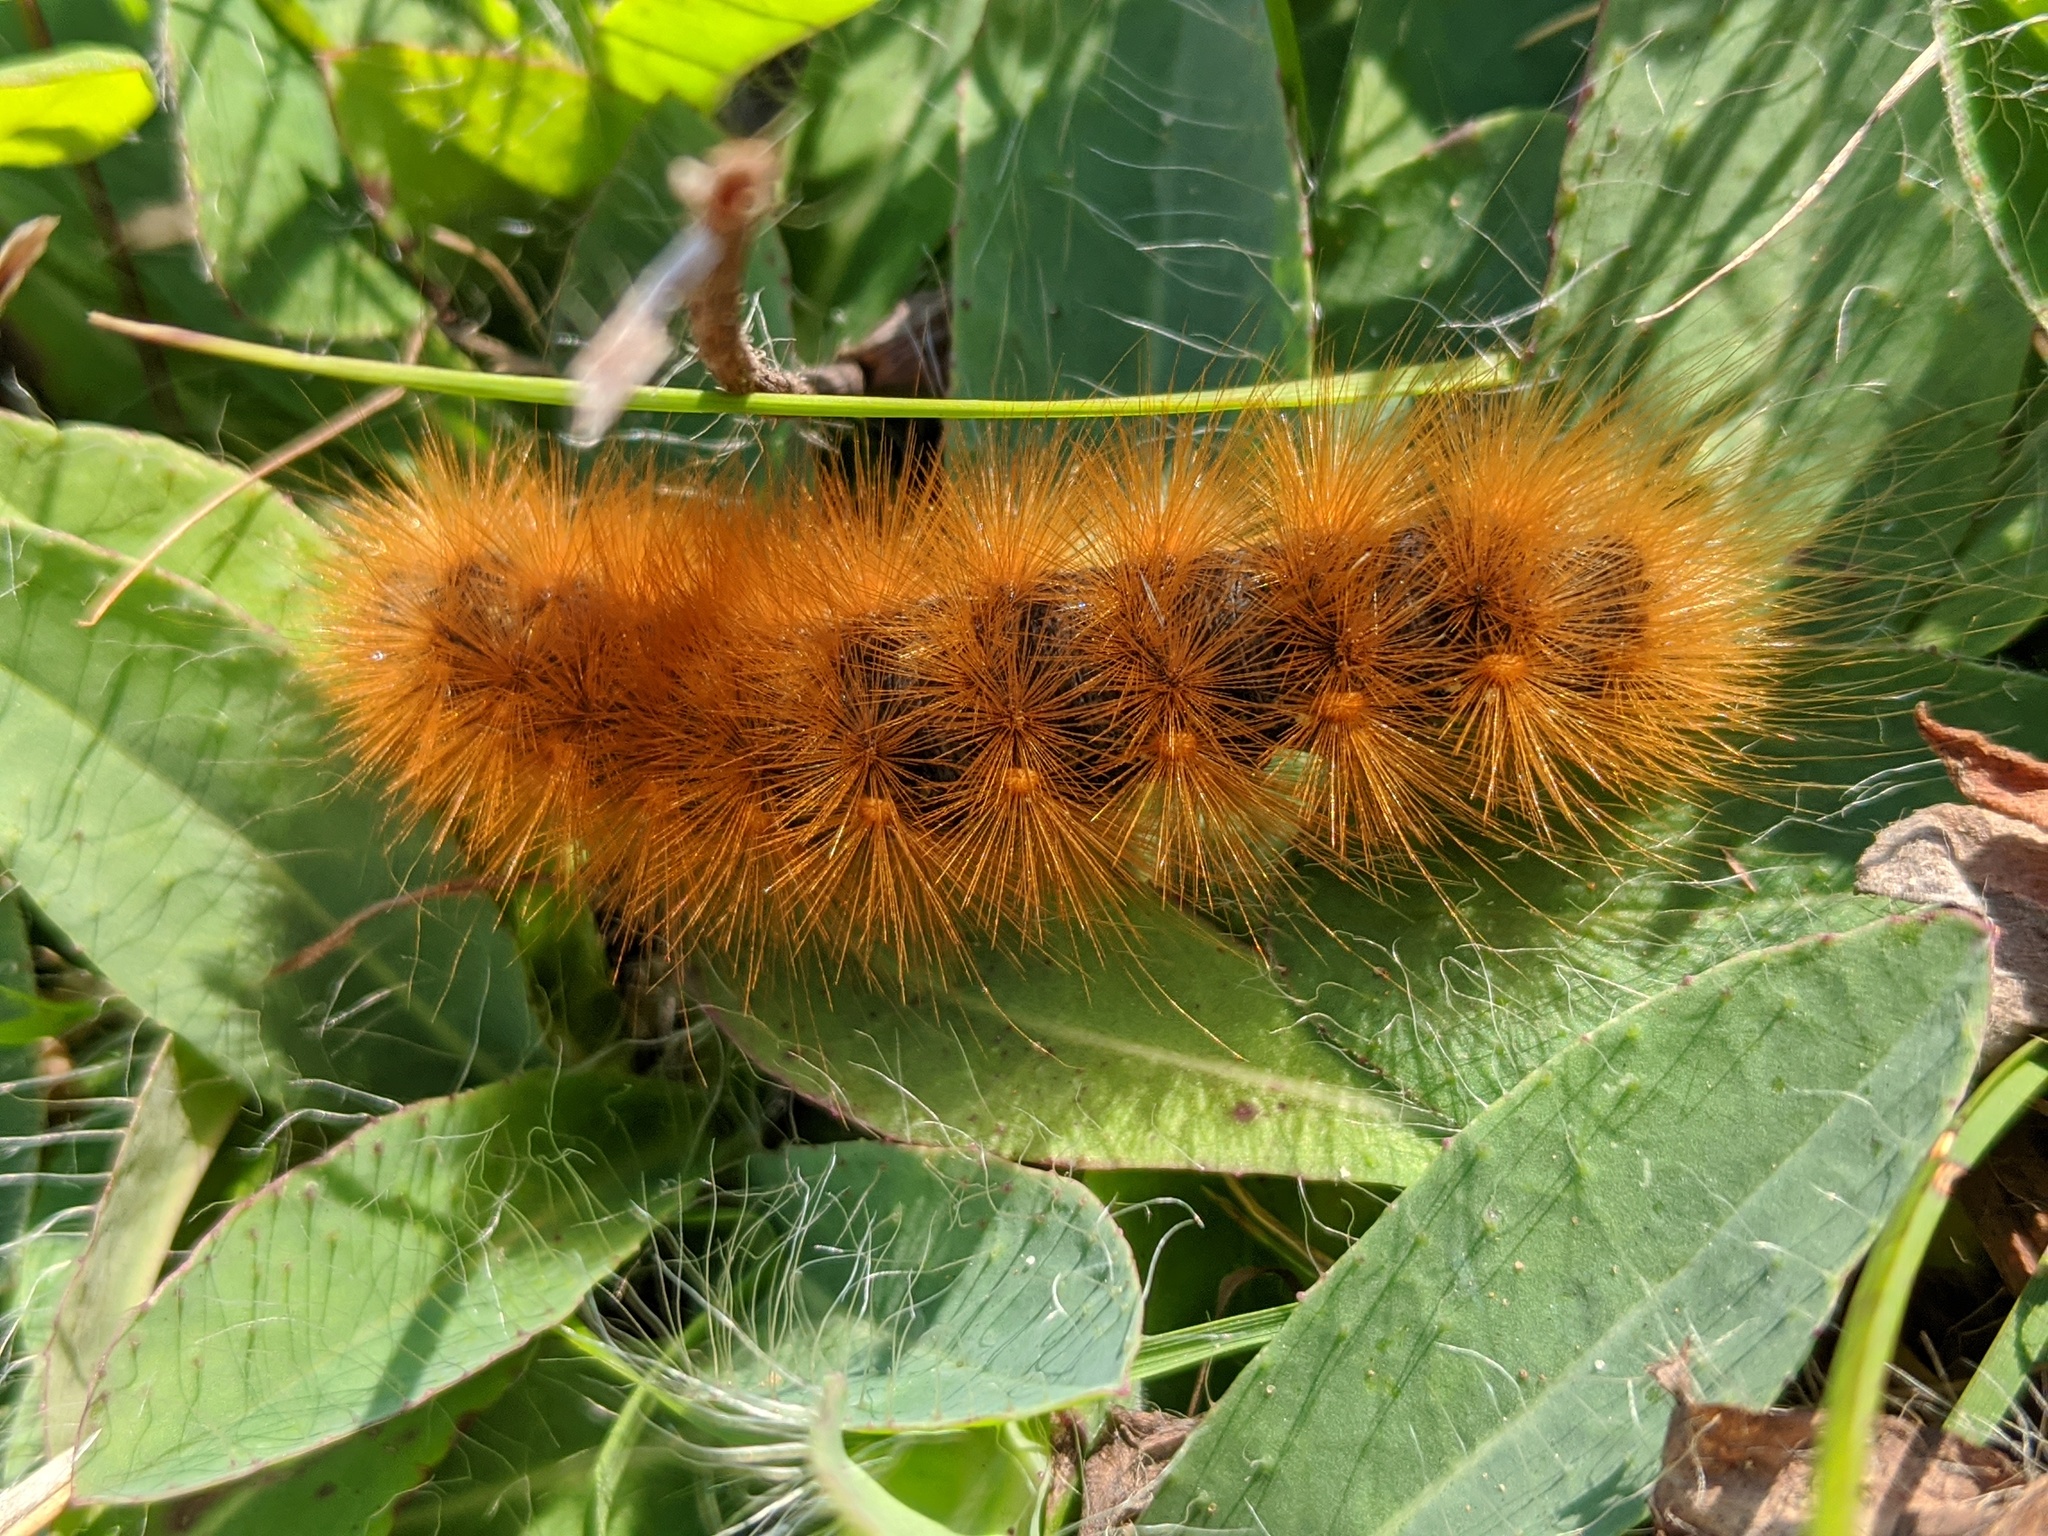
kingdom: Animalia
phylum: Arthropoda
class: Insecta
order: Lepidoptera
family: Erebidae
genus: Estigmene
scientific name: Estigmene acrea
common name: Salt marsh moth
